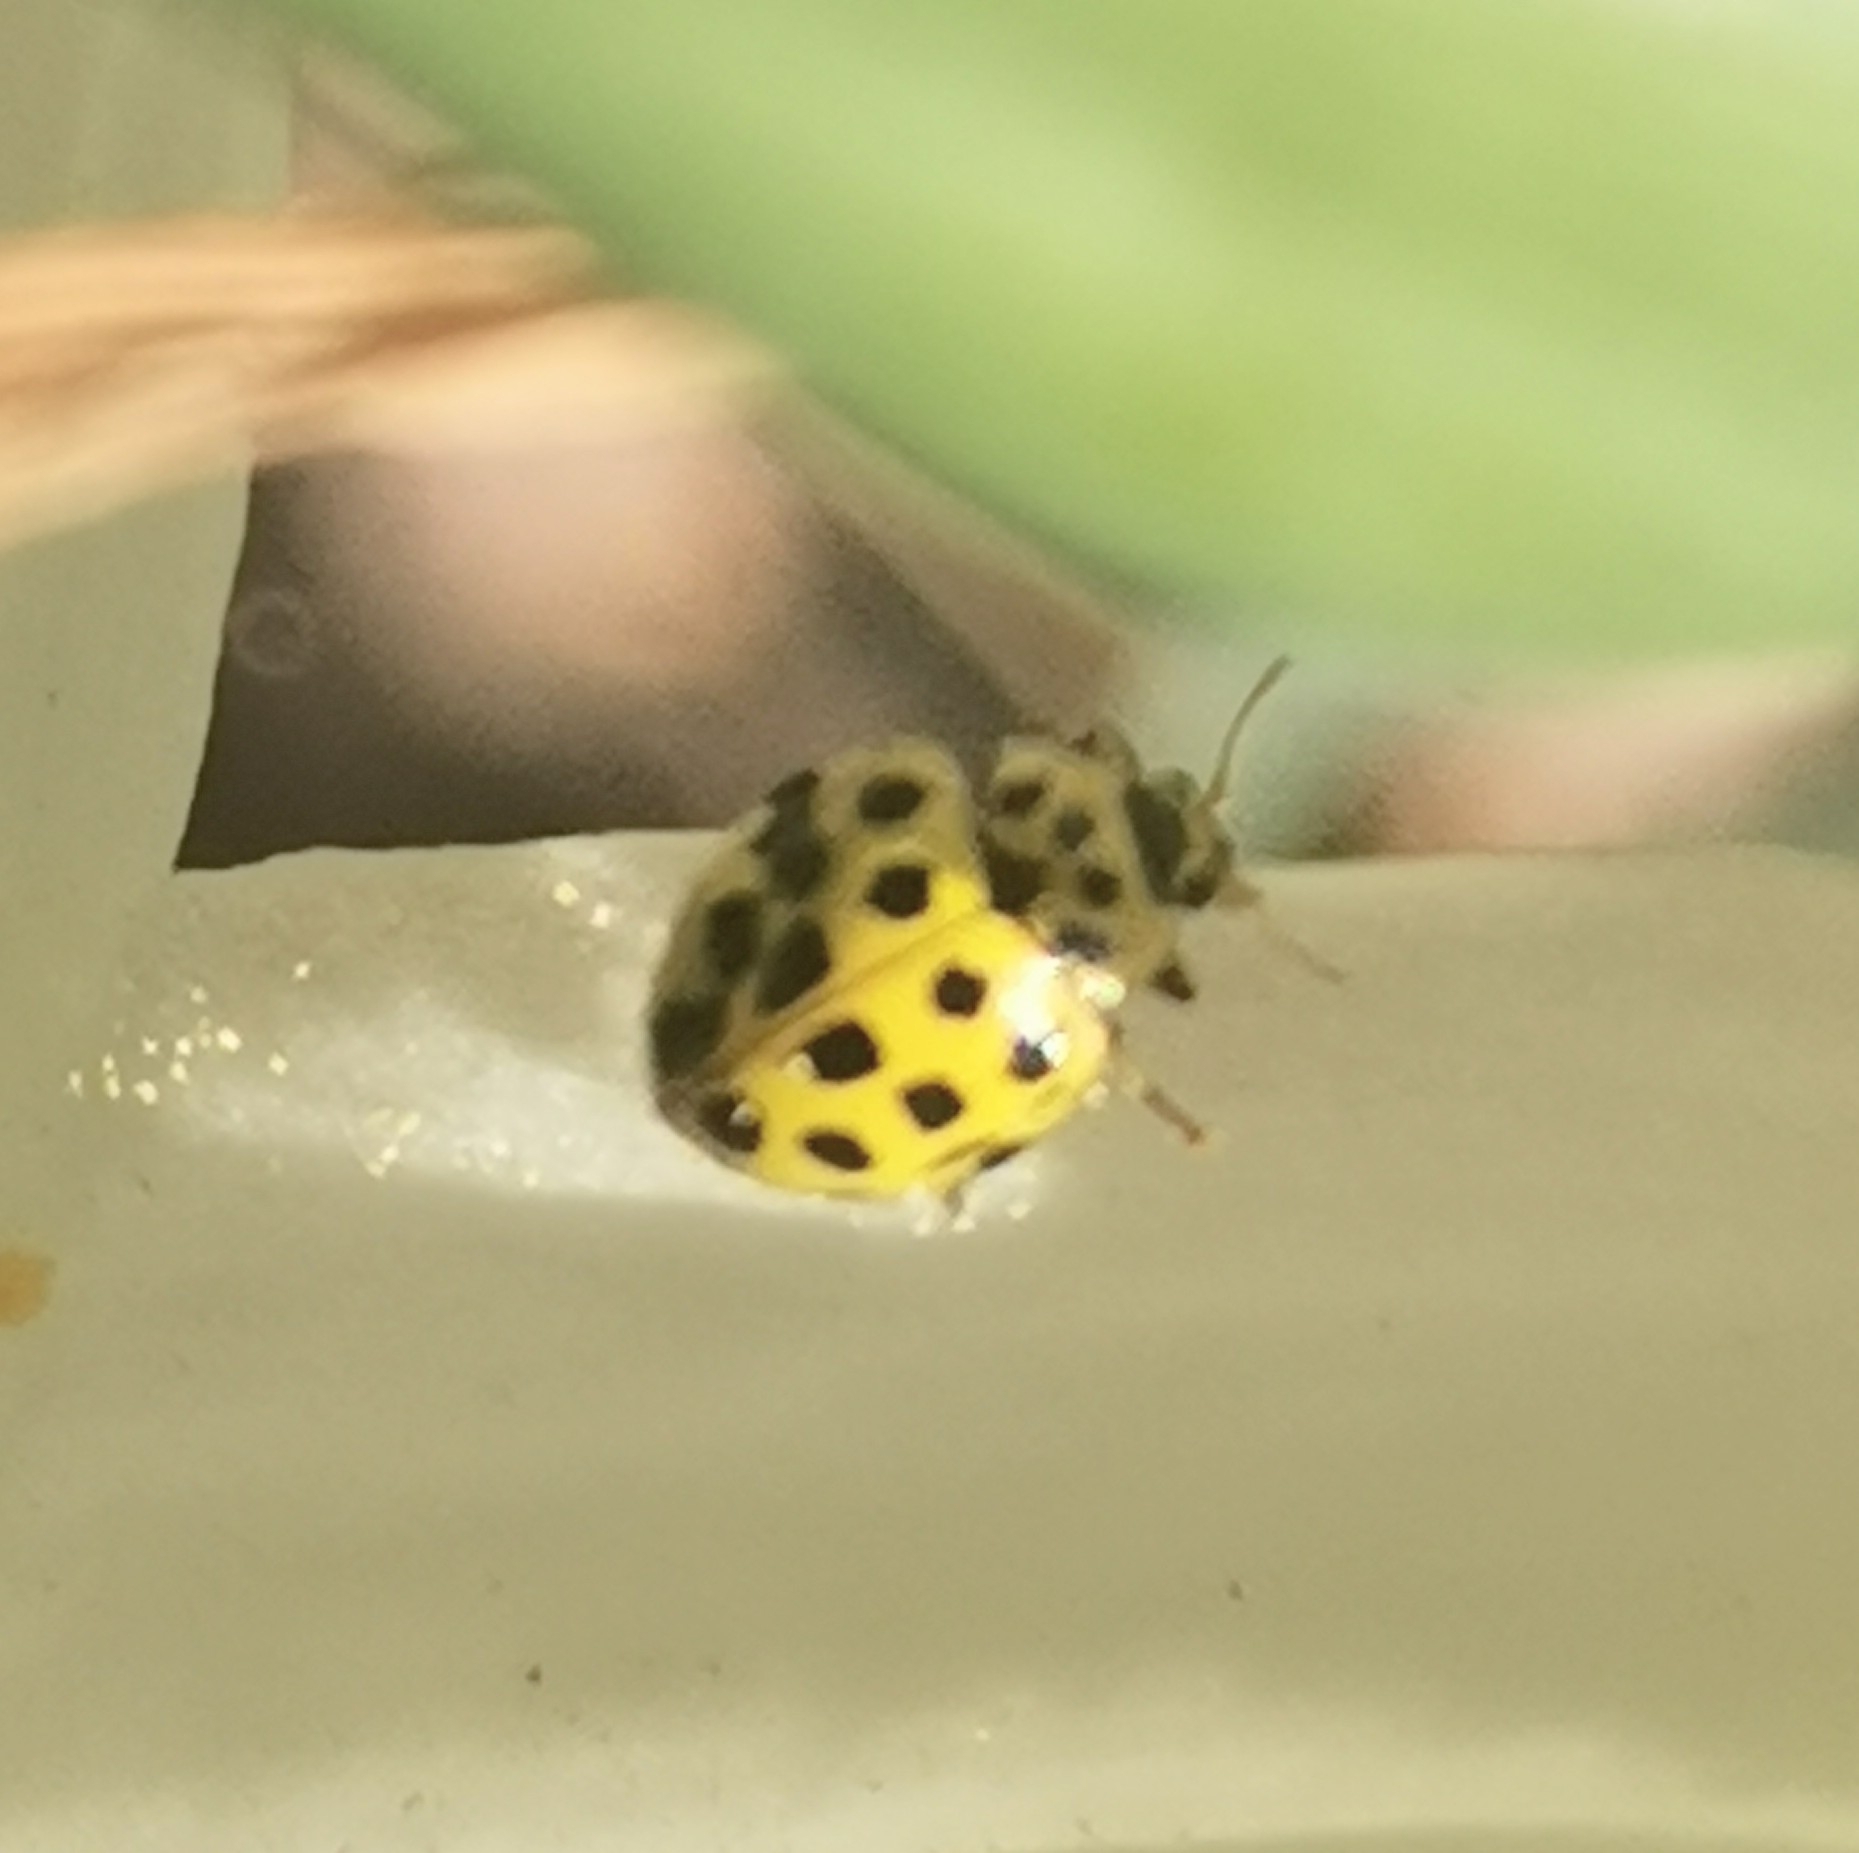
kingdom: Animalia
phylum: Arthropoda
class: Insecta
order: Coleoptera
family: Coccinellidae
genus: Psyllobora
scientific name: Psyllobora vigintiduopunctata
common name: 22-spot ladybird
